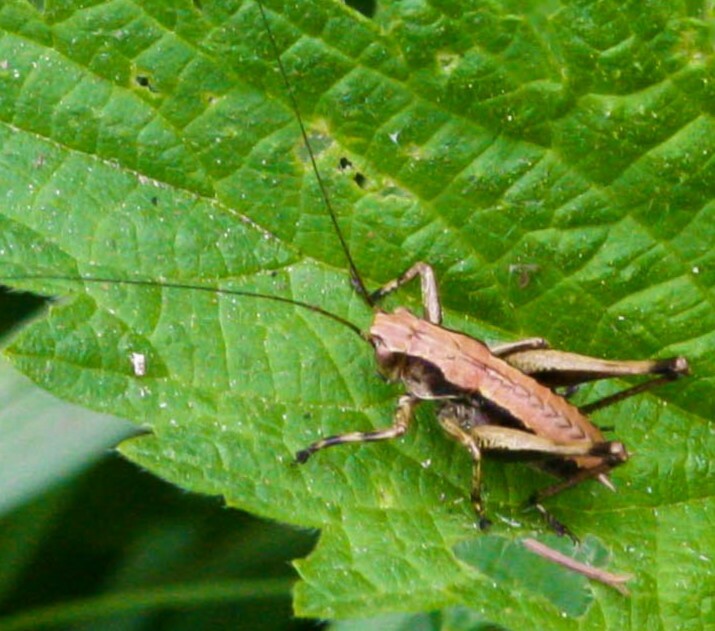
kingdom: Animalia
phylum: Arthropoda
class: Insecta
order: Orthoptera
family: Tettigoniidae
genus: Pholidoptera
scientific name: Pholidoptera griseoaptera
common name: Dark bush-cricket
